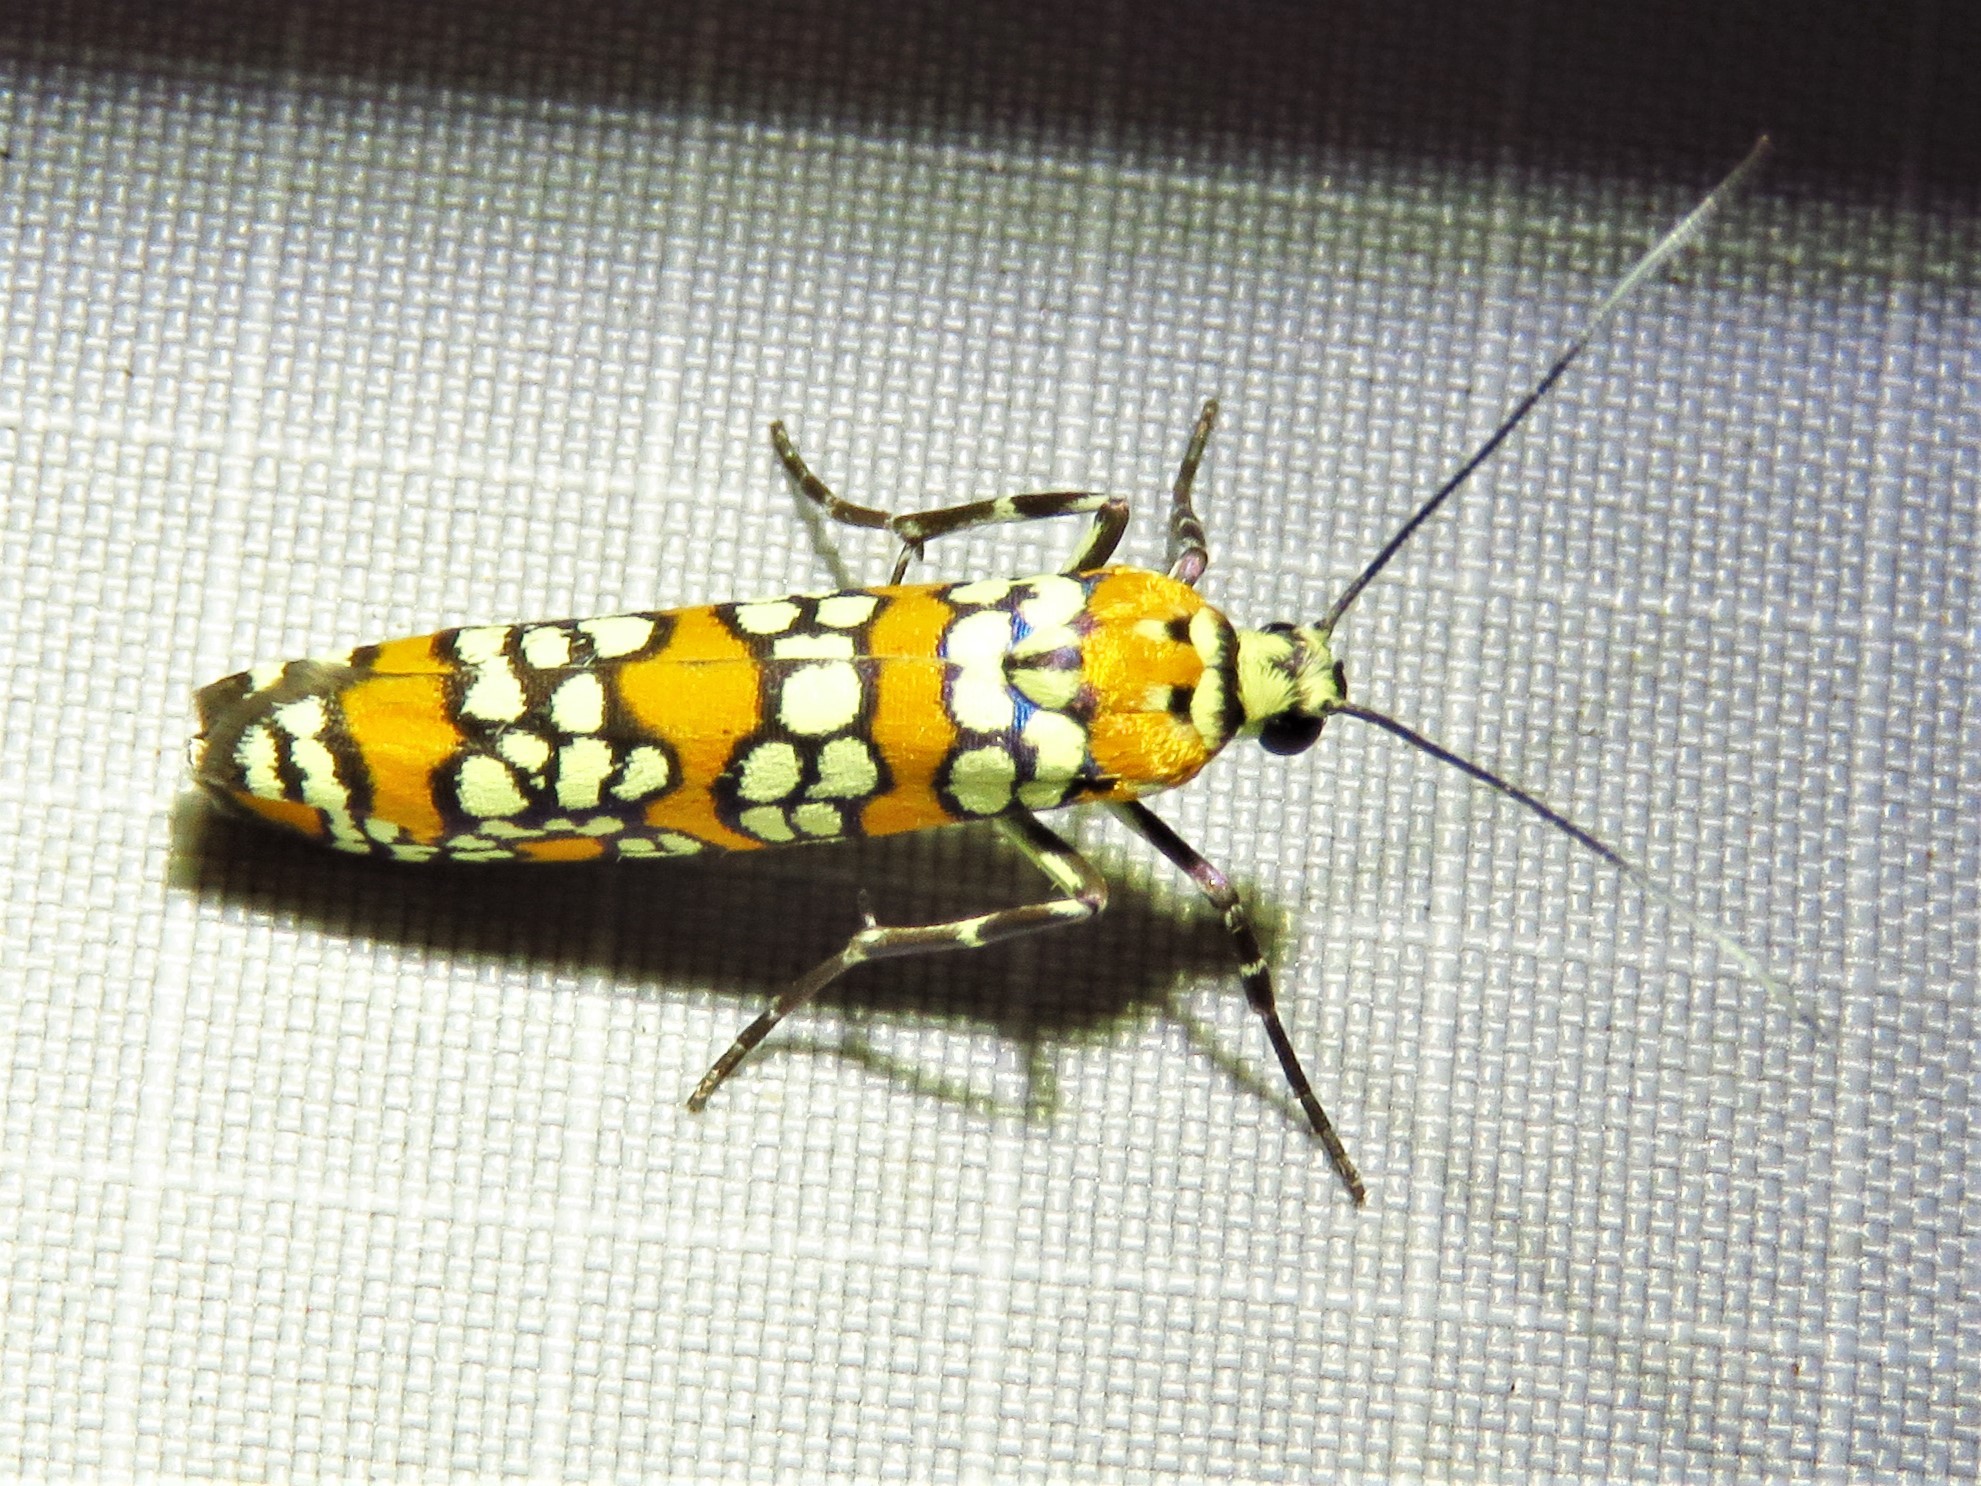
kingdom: Animalia
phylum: Arthropoda
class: Insecta
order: Lepidoptera
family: Attevidae
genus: Atteva
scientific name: Atteva punctella
